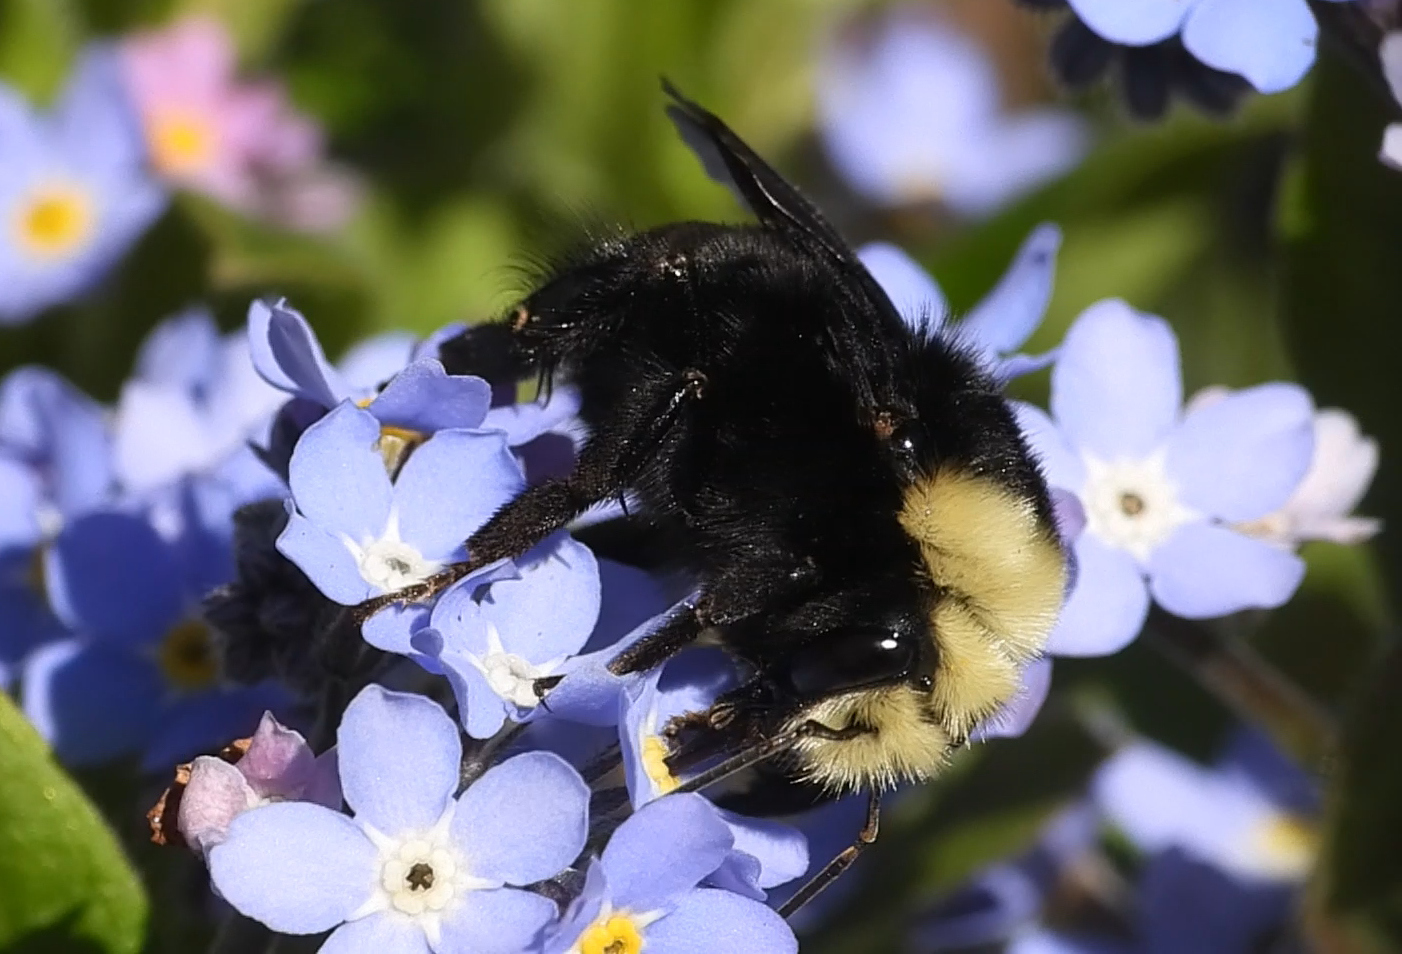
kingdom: Animalia
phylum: Arthropoda
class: Insecta
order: Hymenoptera
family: Apidae
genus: Bombus
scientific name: Bombus vosnesenskii
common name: Vosnesensky bumble bee
